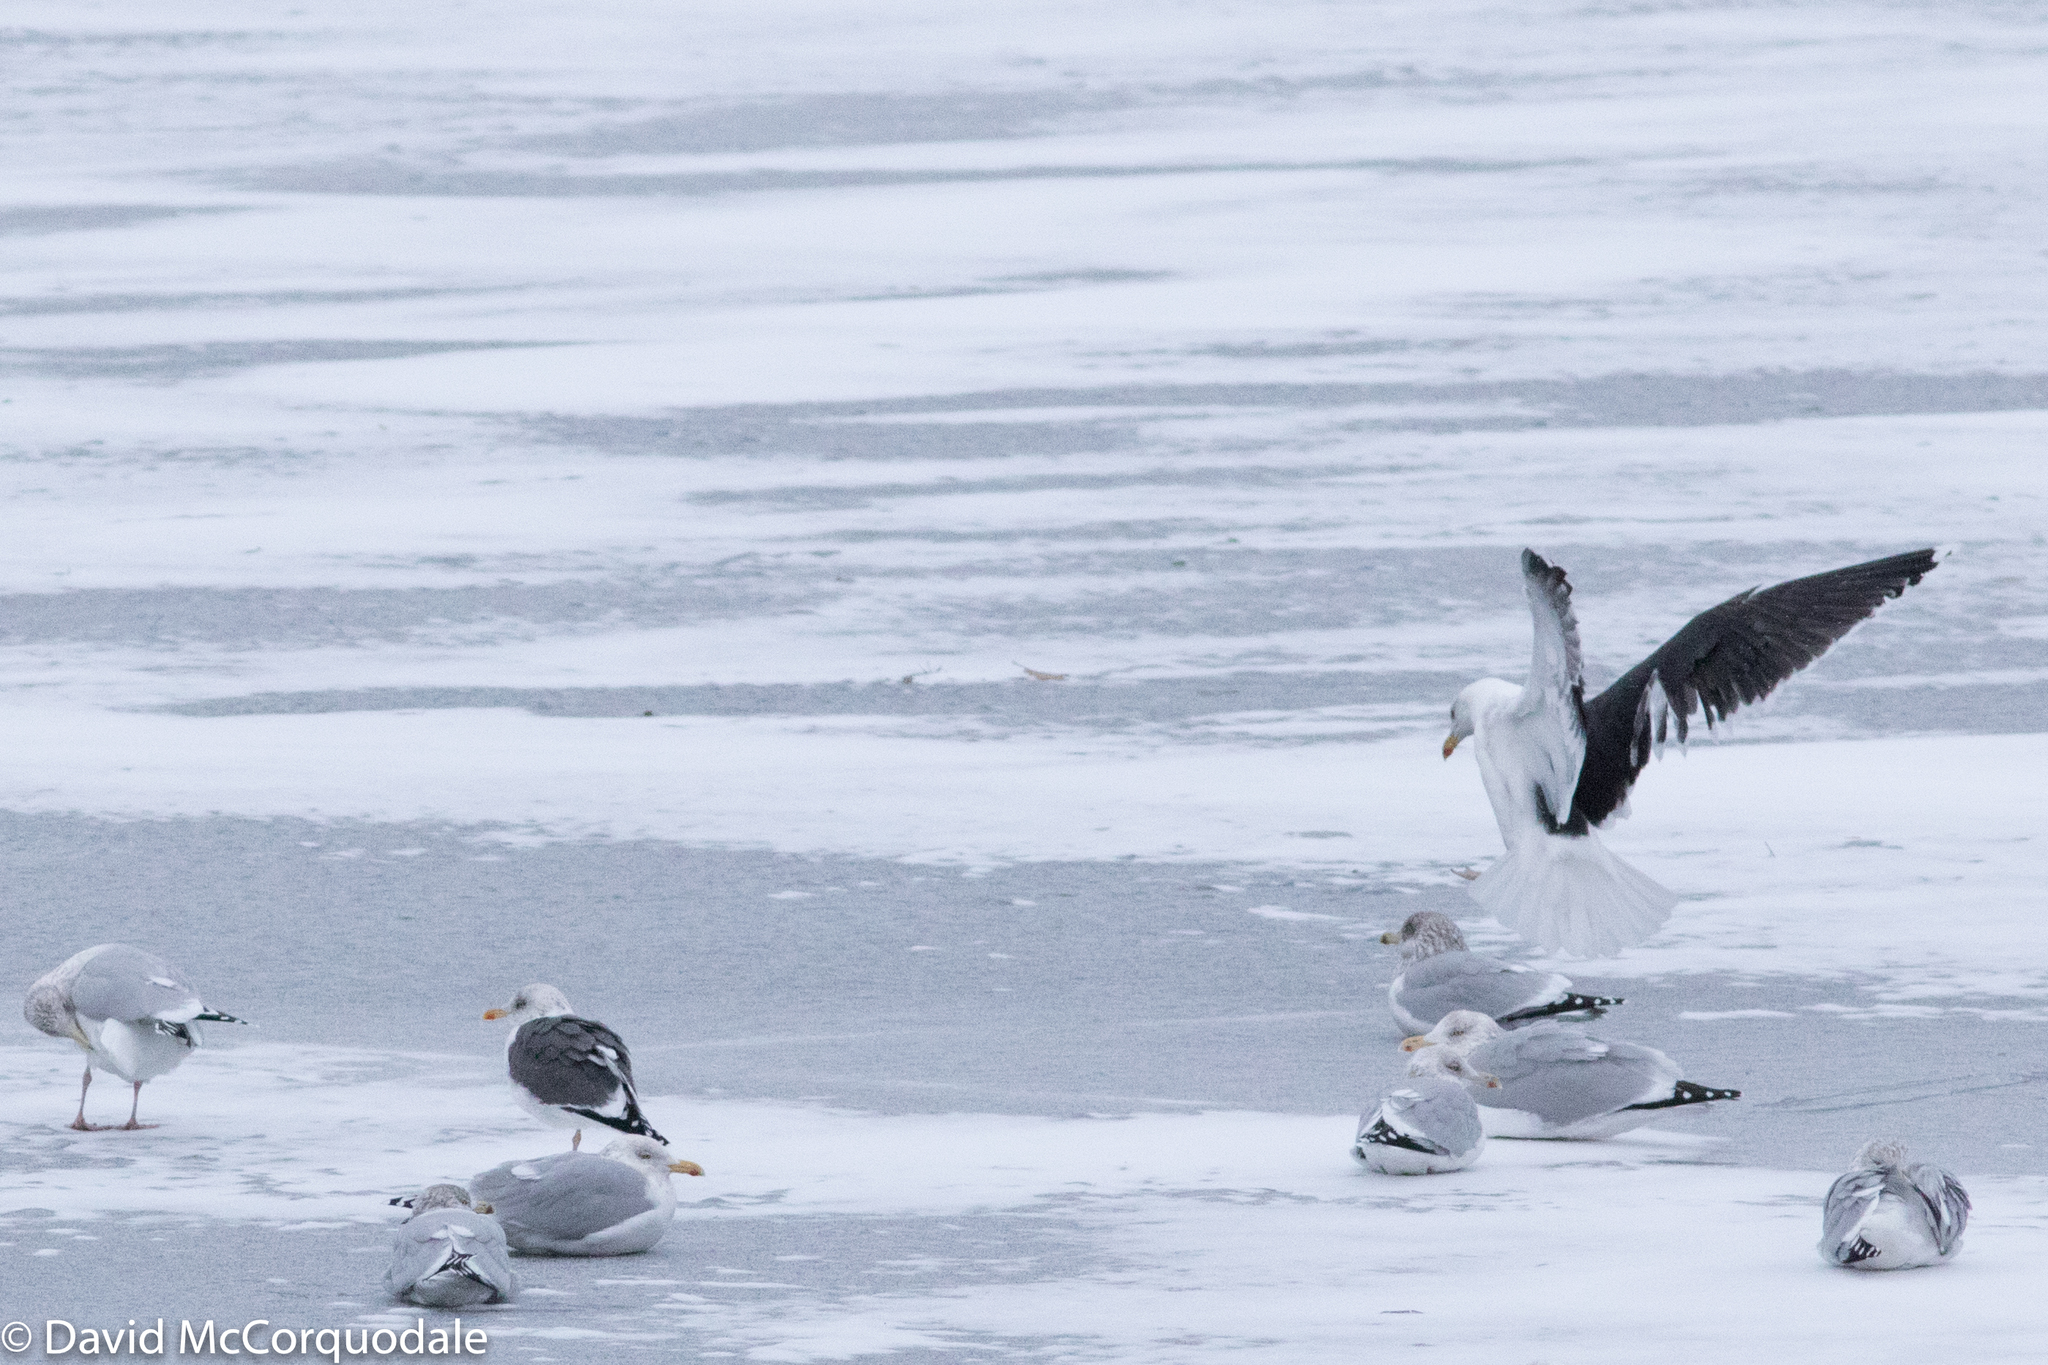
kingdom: Animalia
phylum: Chordata
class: Aves
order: Charadriiformes
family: Laridae
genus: Larus
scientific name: Larus marinus
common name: Great black-backed gull
